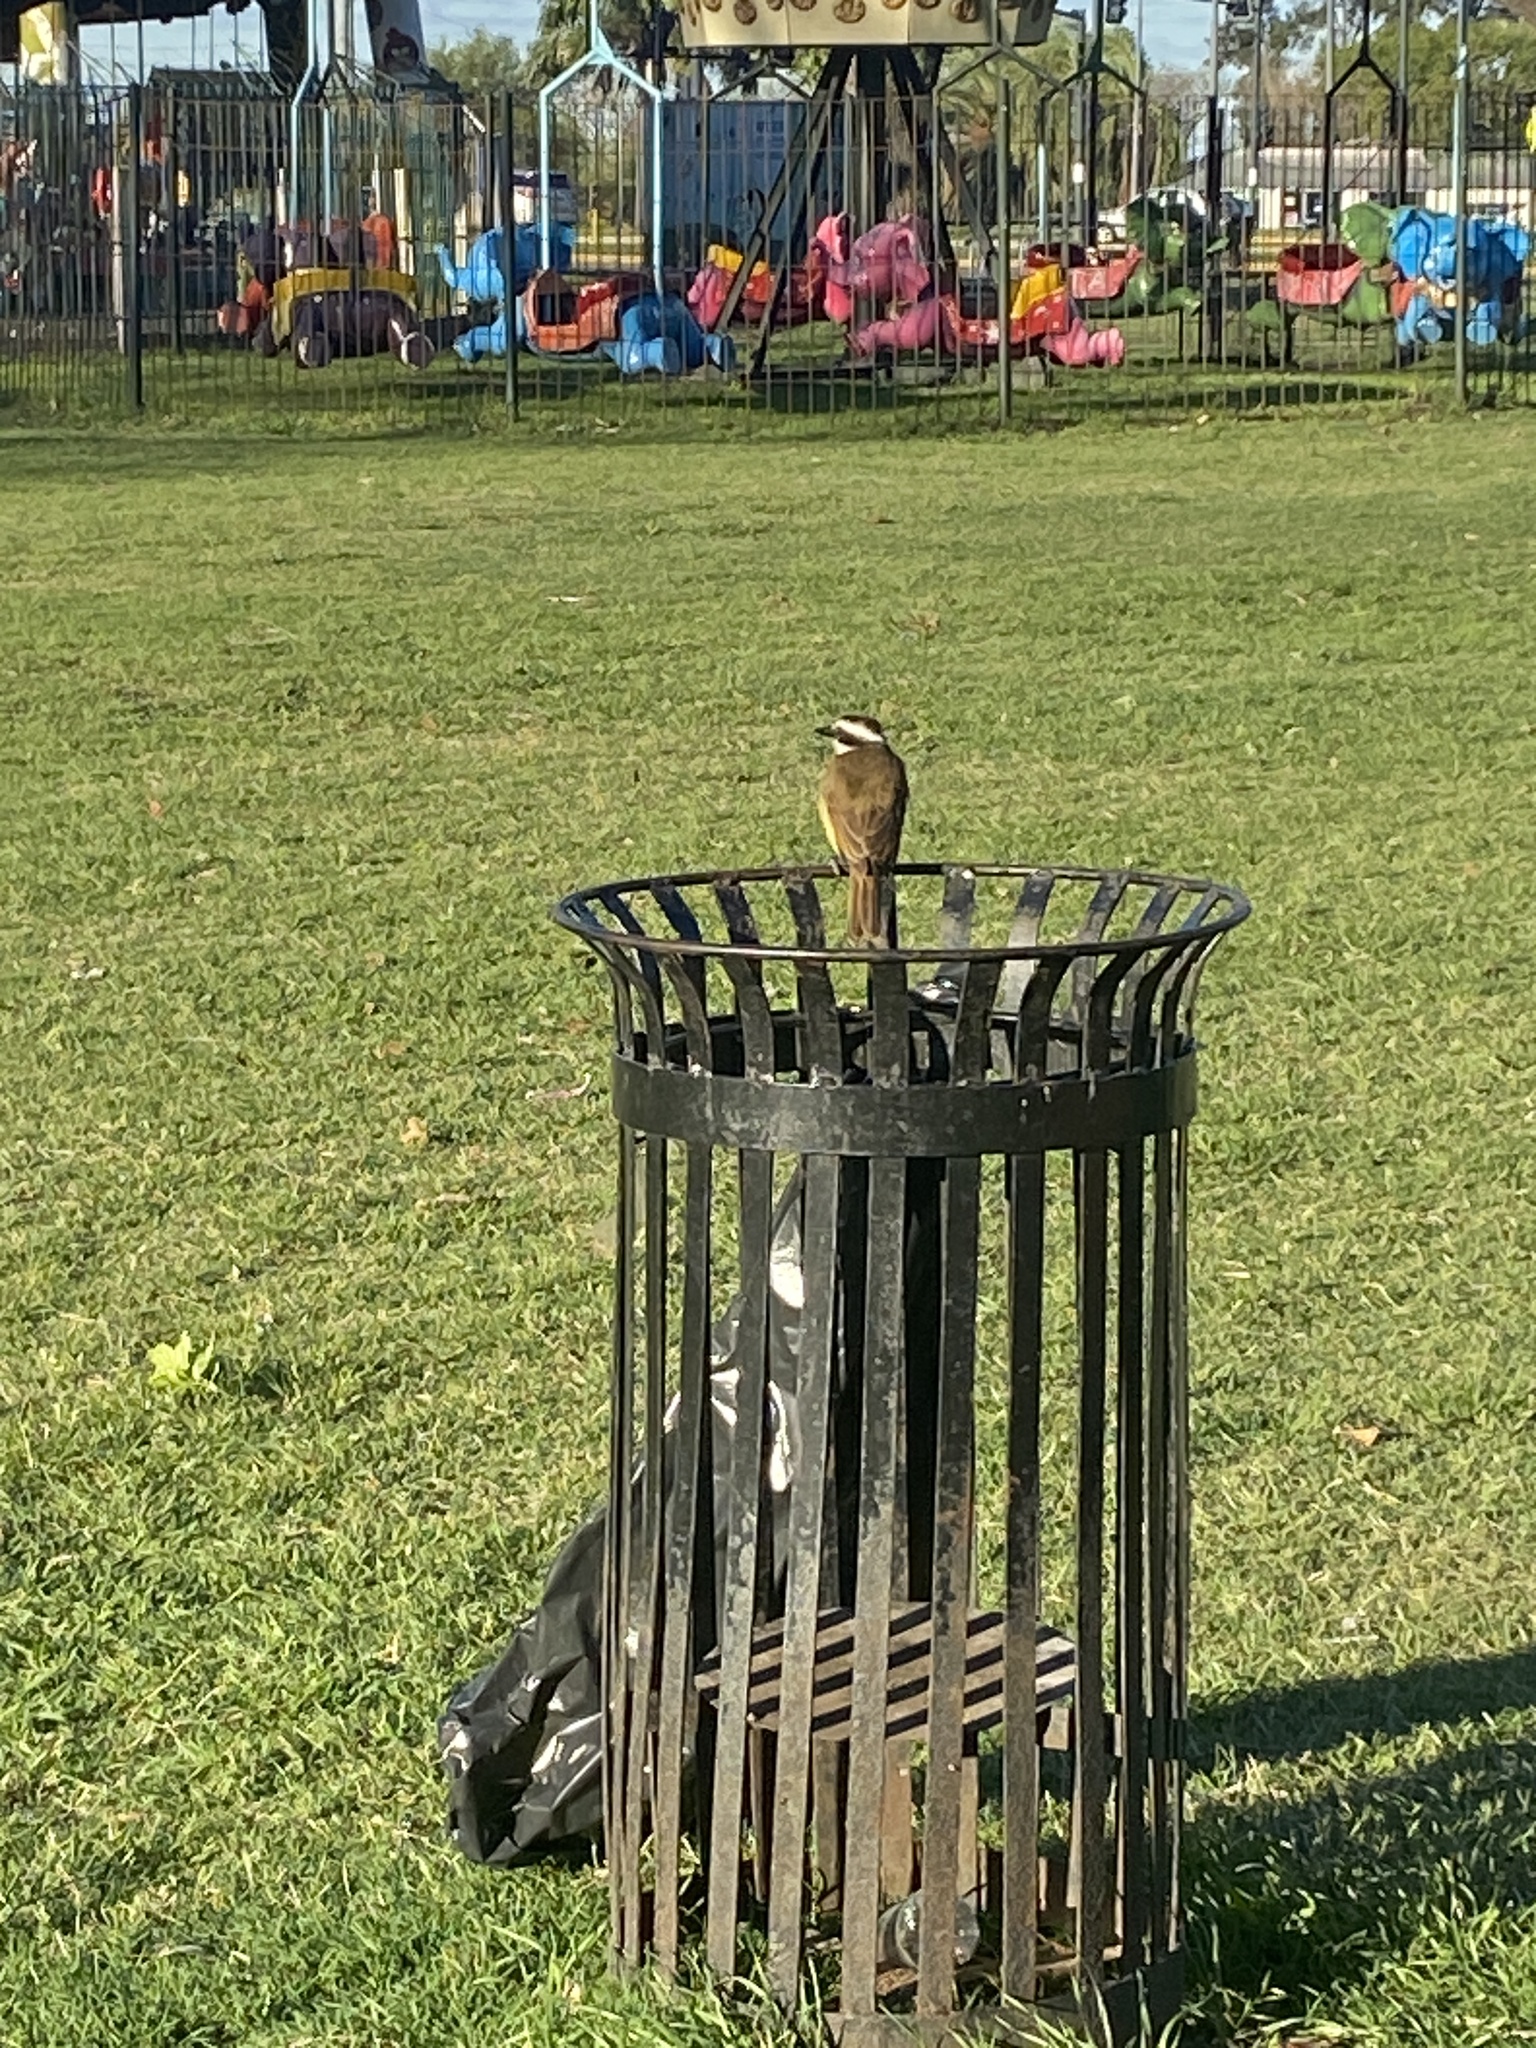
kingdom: Animalia
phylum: Chordata
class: Aves
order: Passeriformes
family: Tyrannidae
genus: Pitangus
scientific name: Pitangus sulphuratus
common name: Great kiskadee
